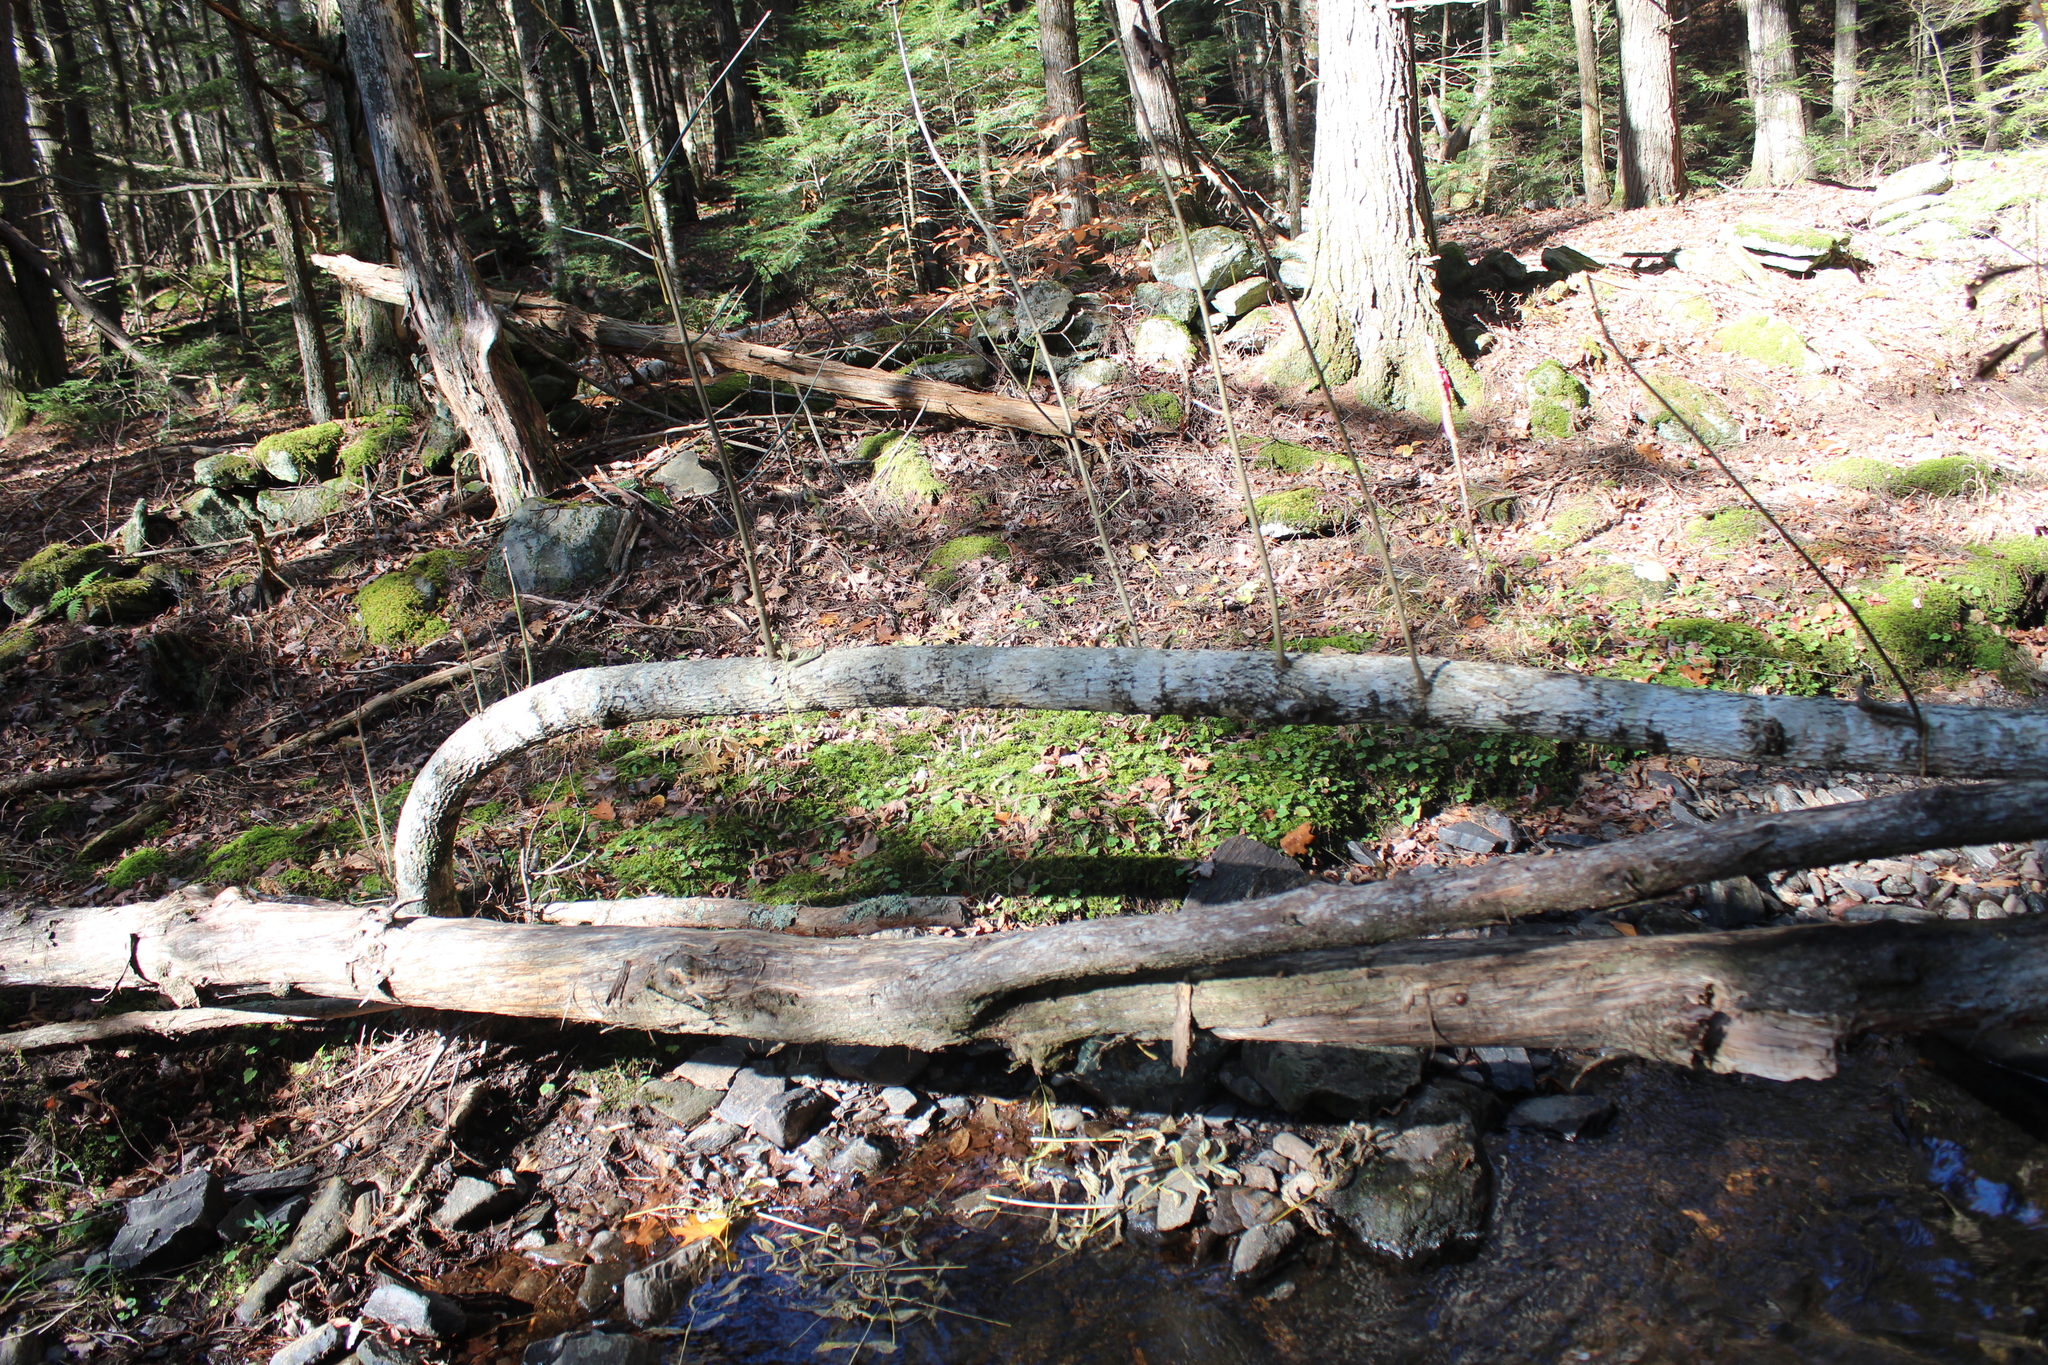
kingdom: Plantae
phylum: Tracheophyta
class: Magnoliopsida
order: Lamiales
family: Oleaceae
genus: Fraxinus
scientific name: Fraxinus nigra
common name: Black ash
